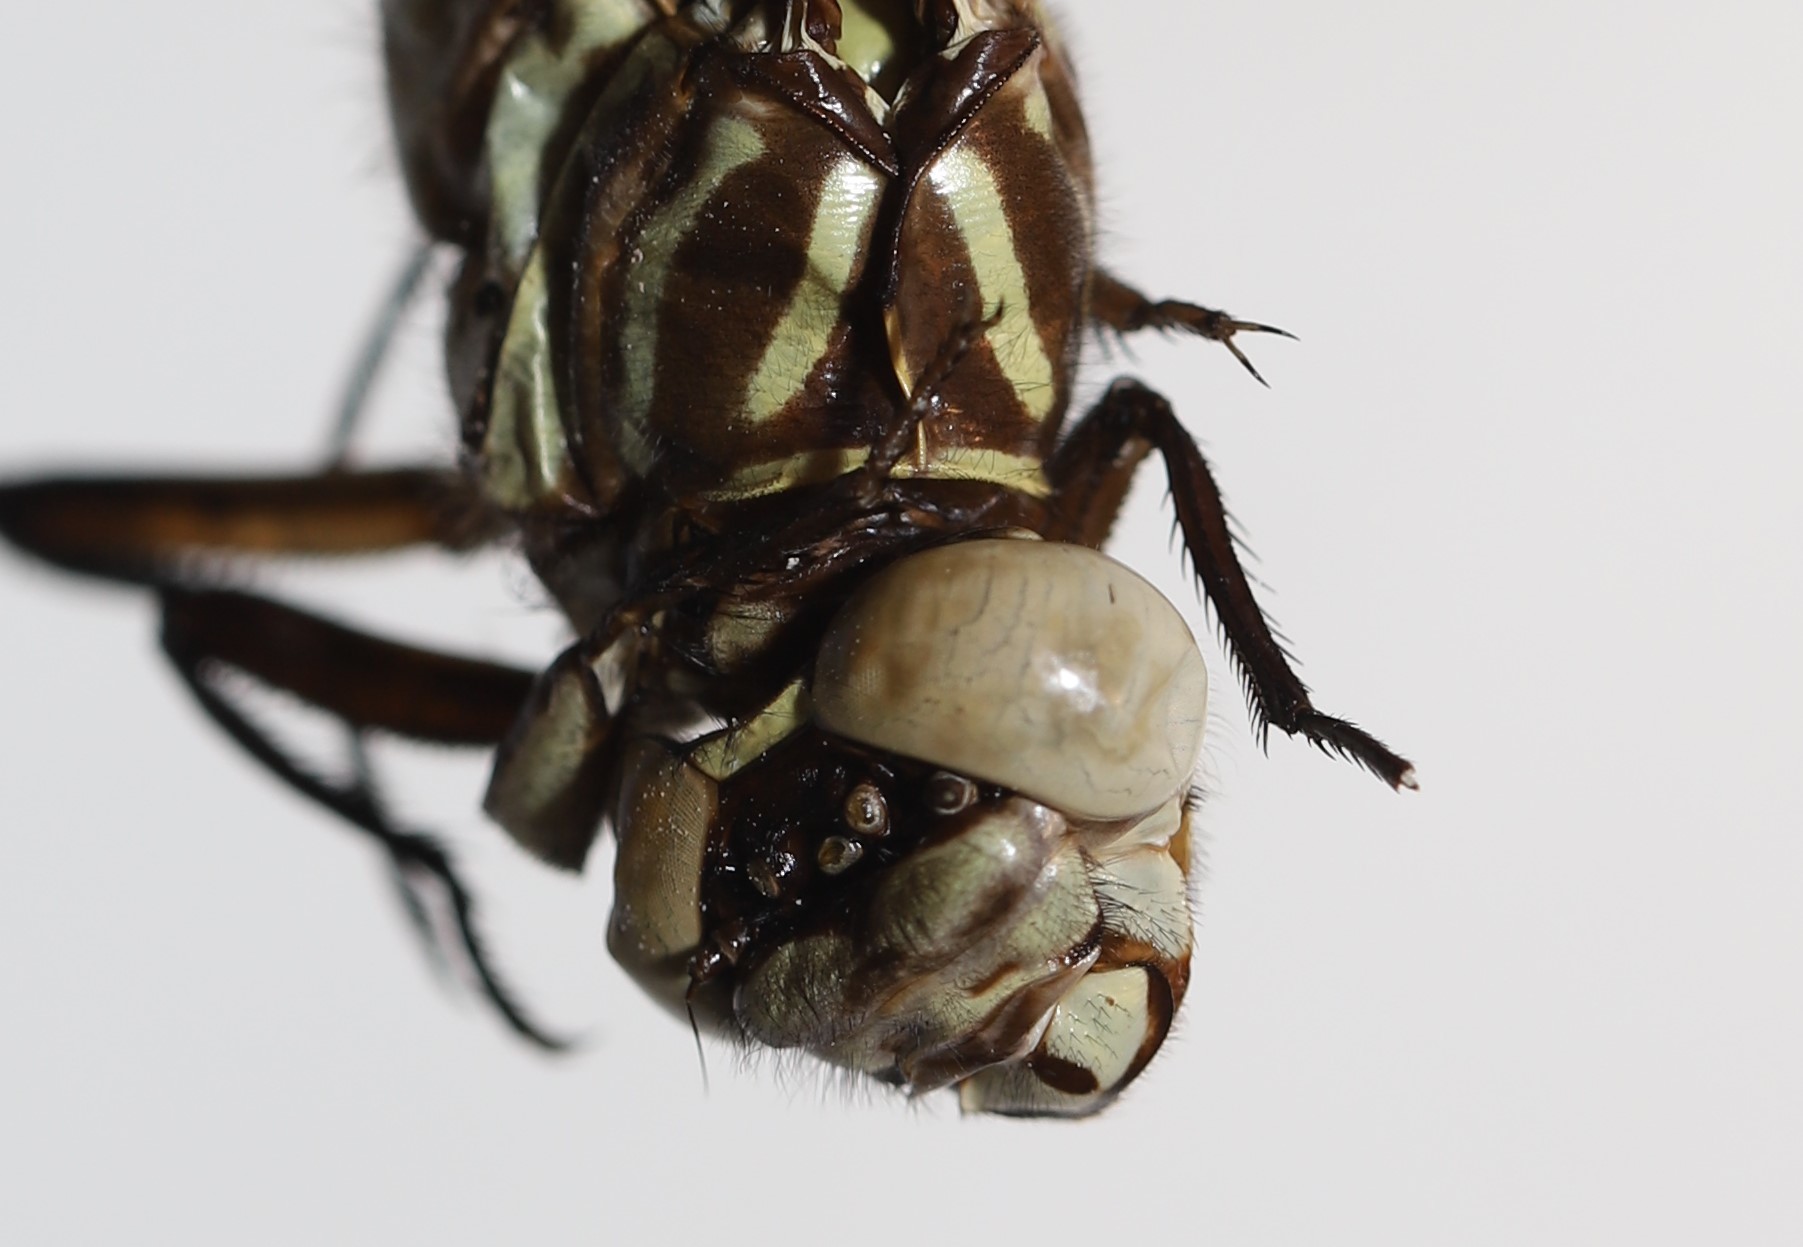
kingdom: Animalia
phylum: Arthropoda
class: Insecta
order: Odonata
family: Gomphidae
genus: Stylurus
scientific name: Stylurus notatus
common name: Elusive clubtail
